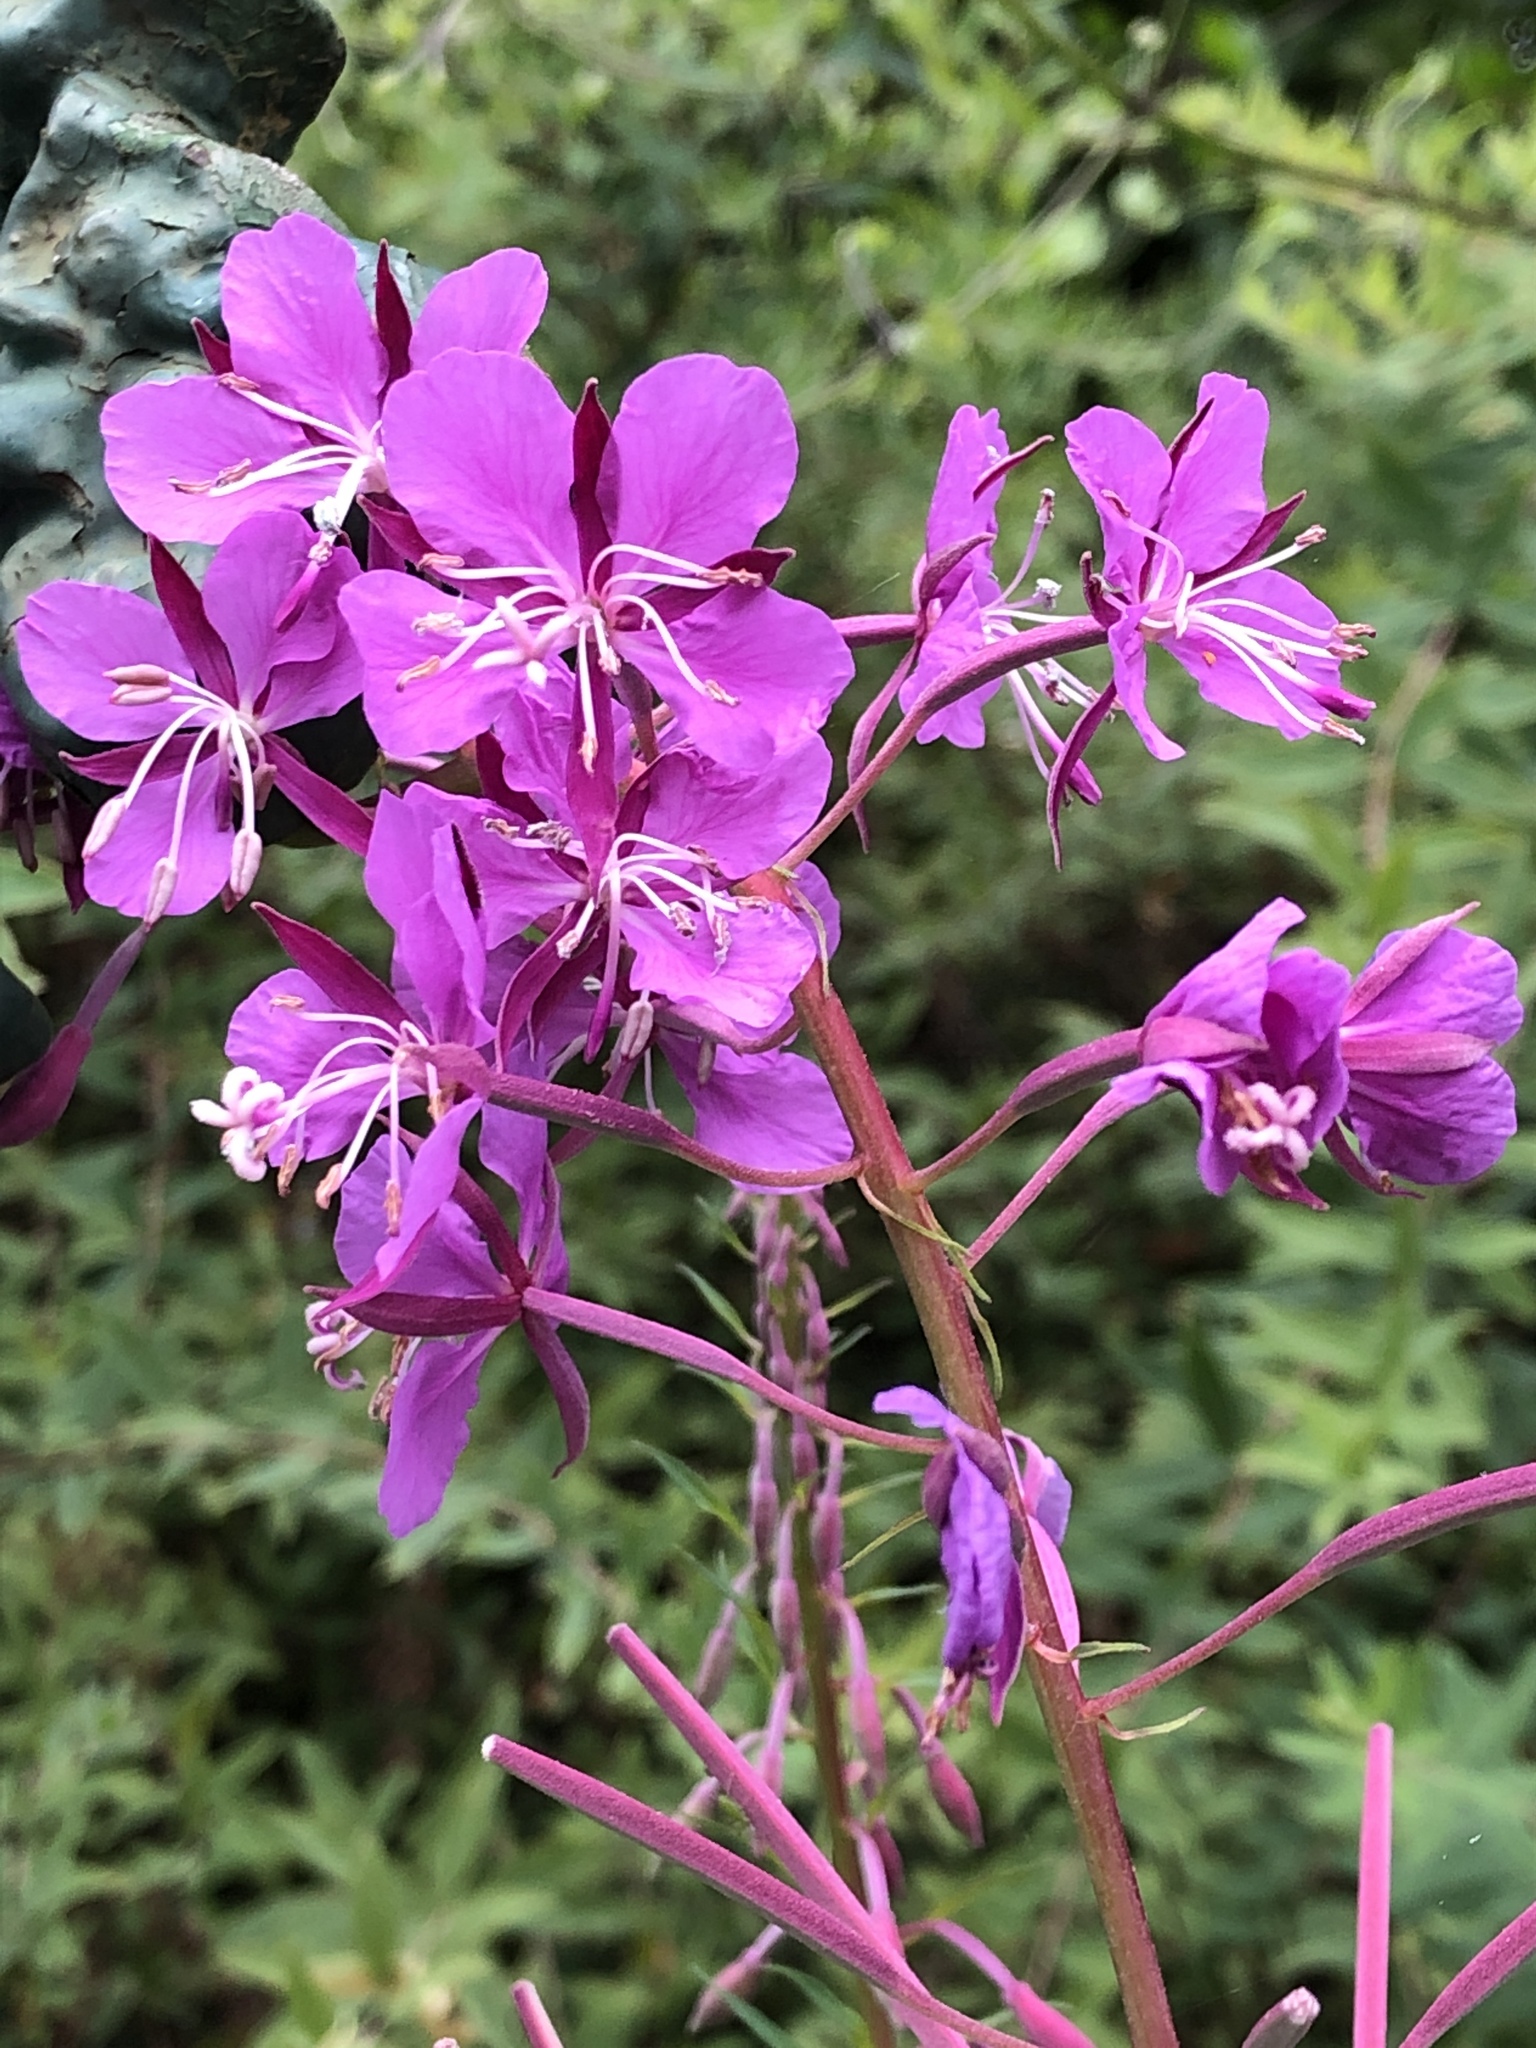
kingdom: Plantae
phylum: Tracheophyta
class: Magnoliopsida
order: Myrtales
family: Onagraceae
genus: Chamaenerion
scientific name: Chamaenerion angustifolium
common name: Fireweed
